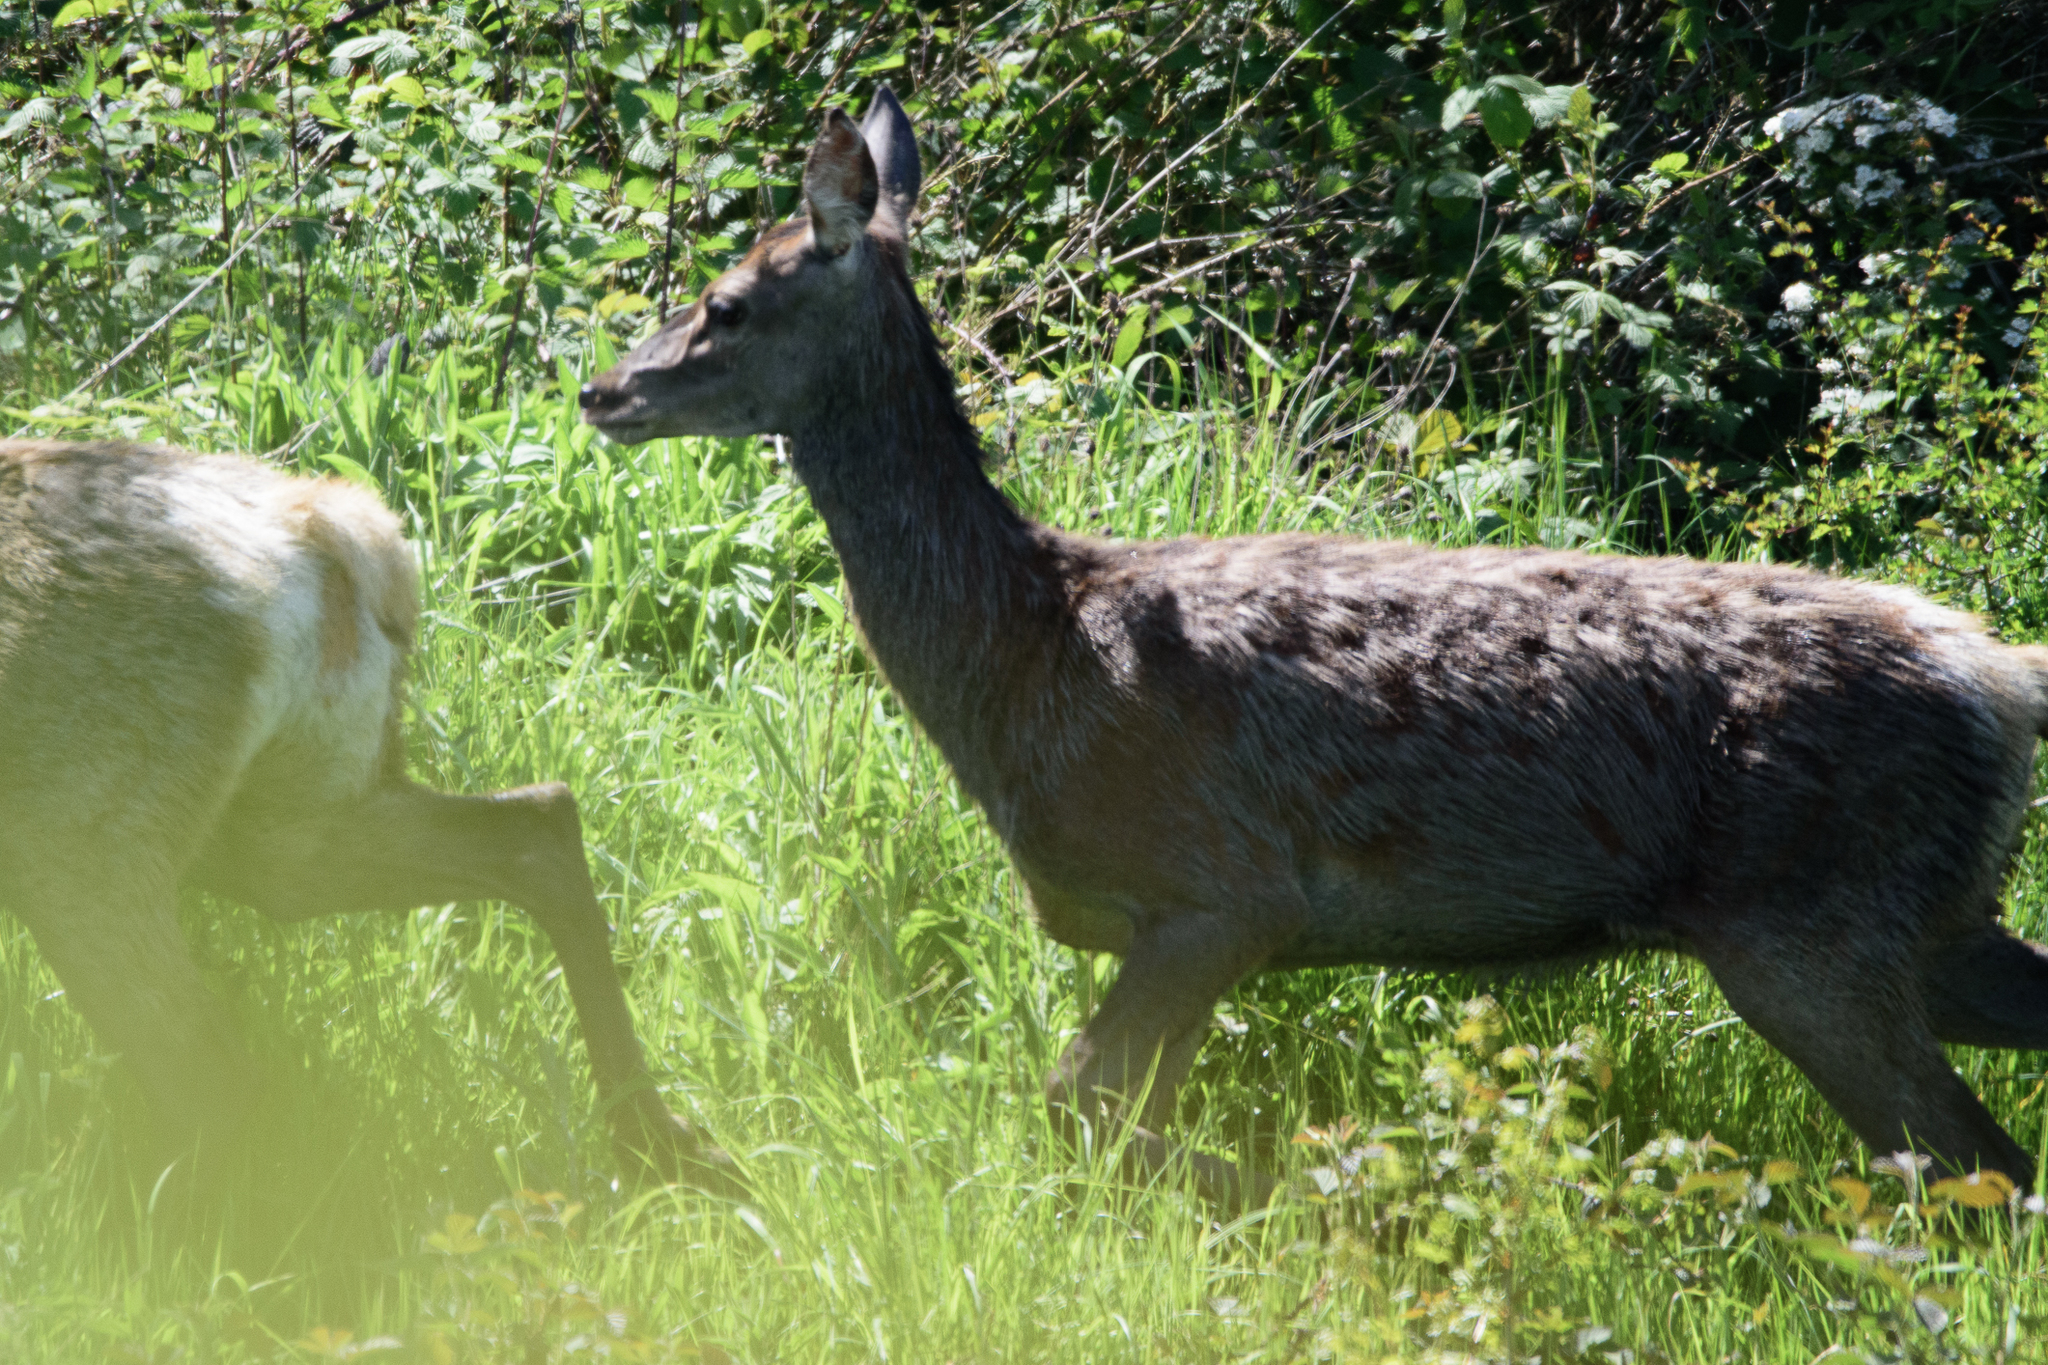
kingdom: Animalia
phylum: Chordata
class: Mammalia
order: Artiodactyla
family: Cervidae
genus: Cervus
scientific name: Cervus elaphus
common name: Red deer
